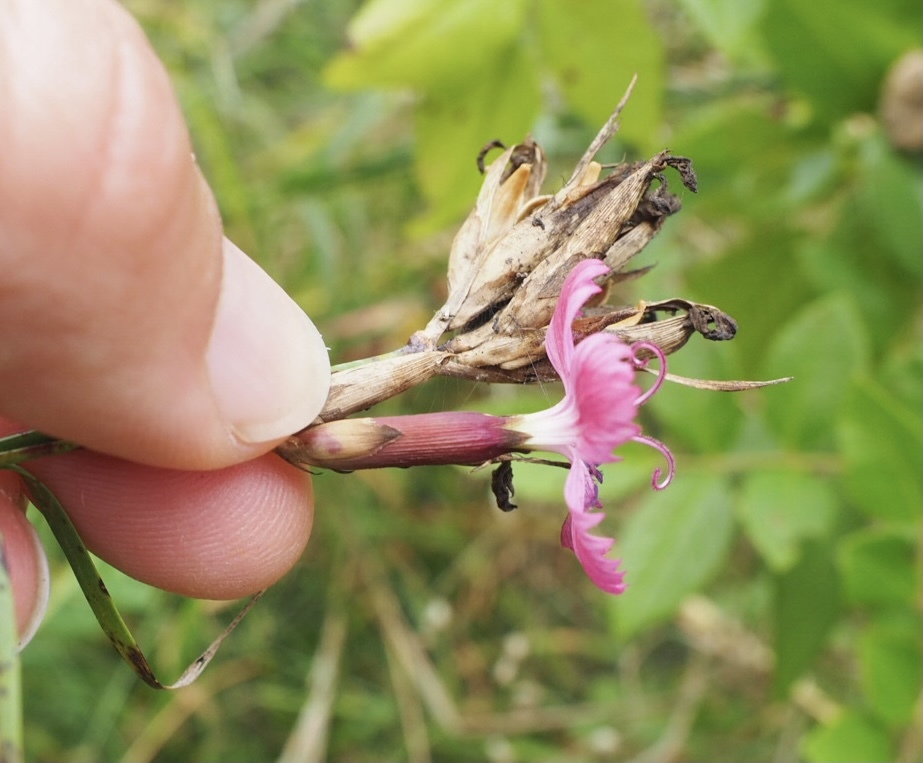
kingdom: Plantae
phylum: Tracheophyta
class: Magnoliopsida
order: Caryophyllales
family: Caryophyllaceae
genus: Dianthus
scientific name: Dianthus giganteus
